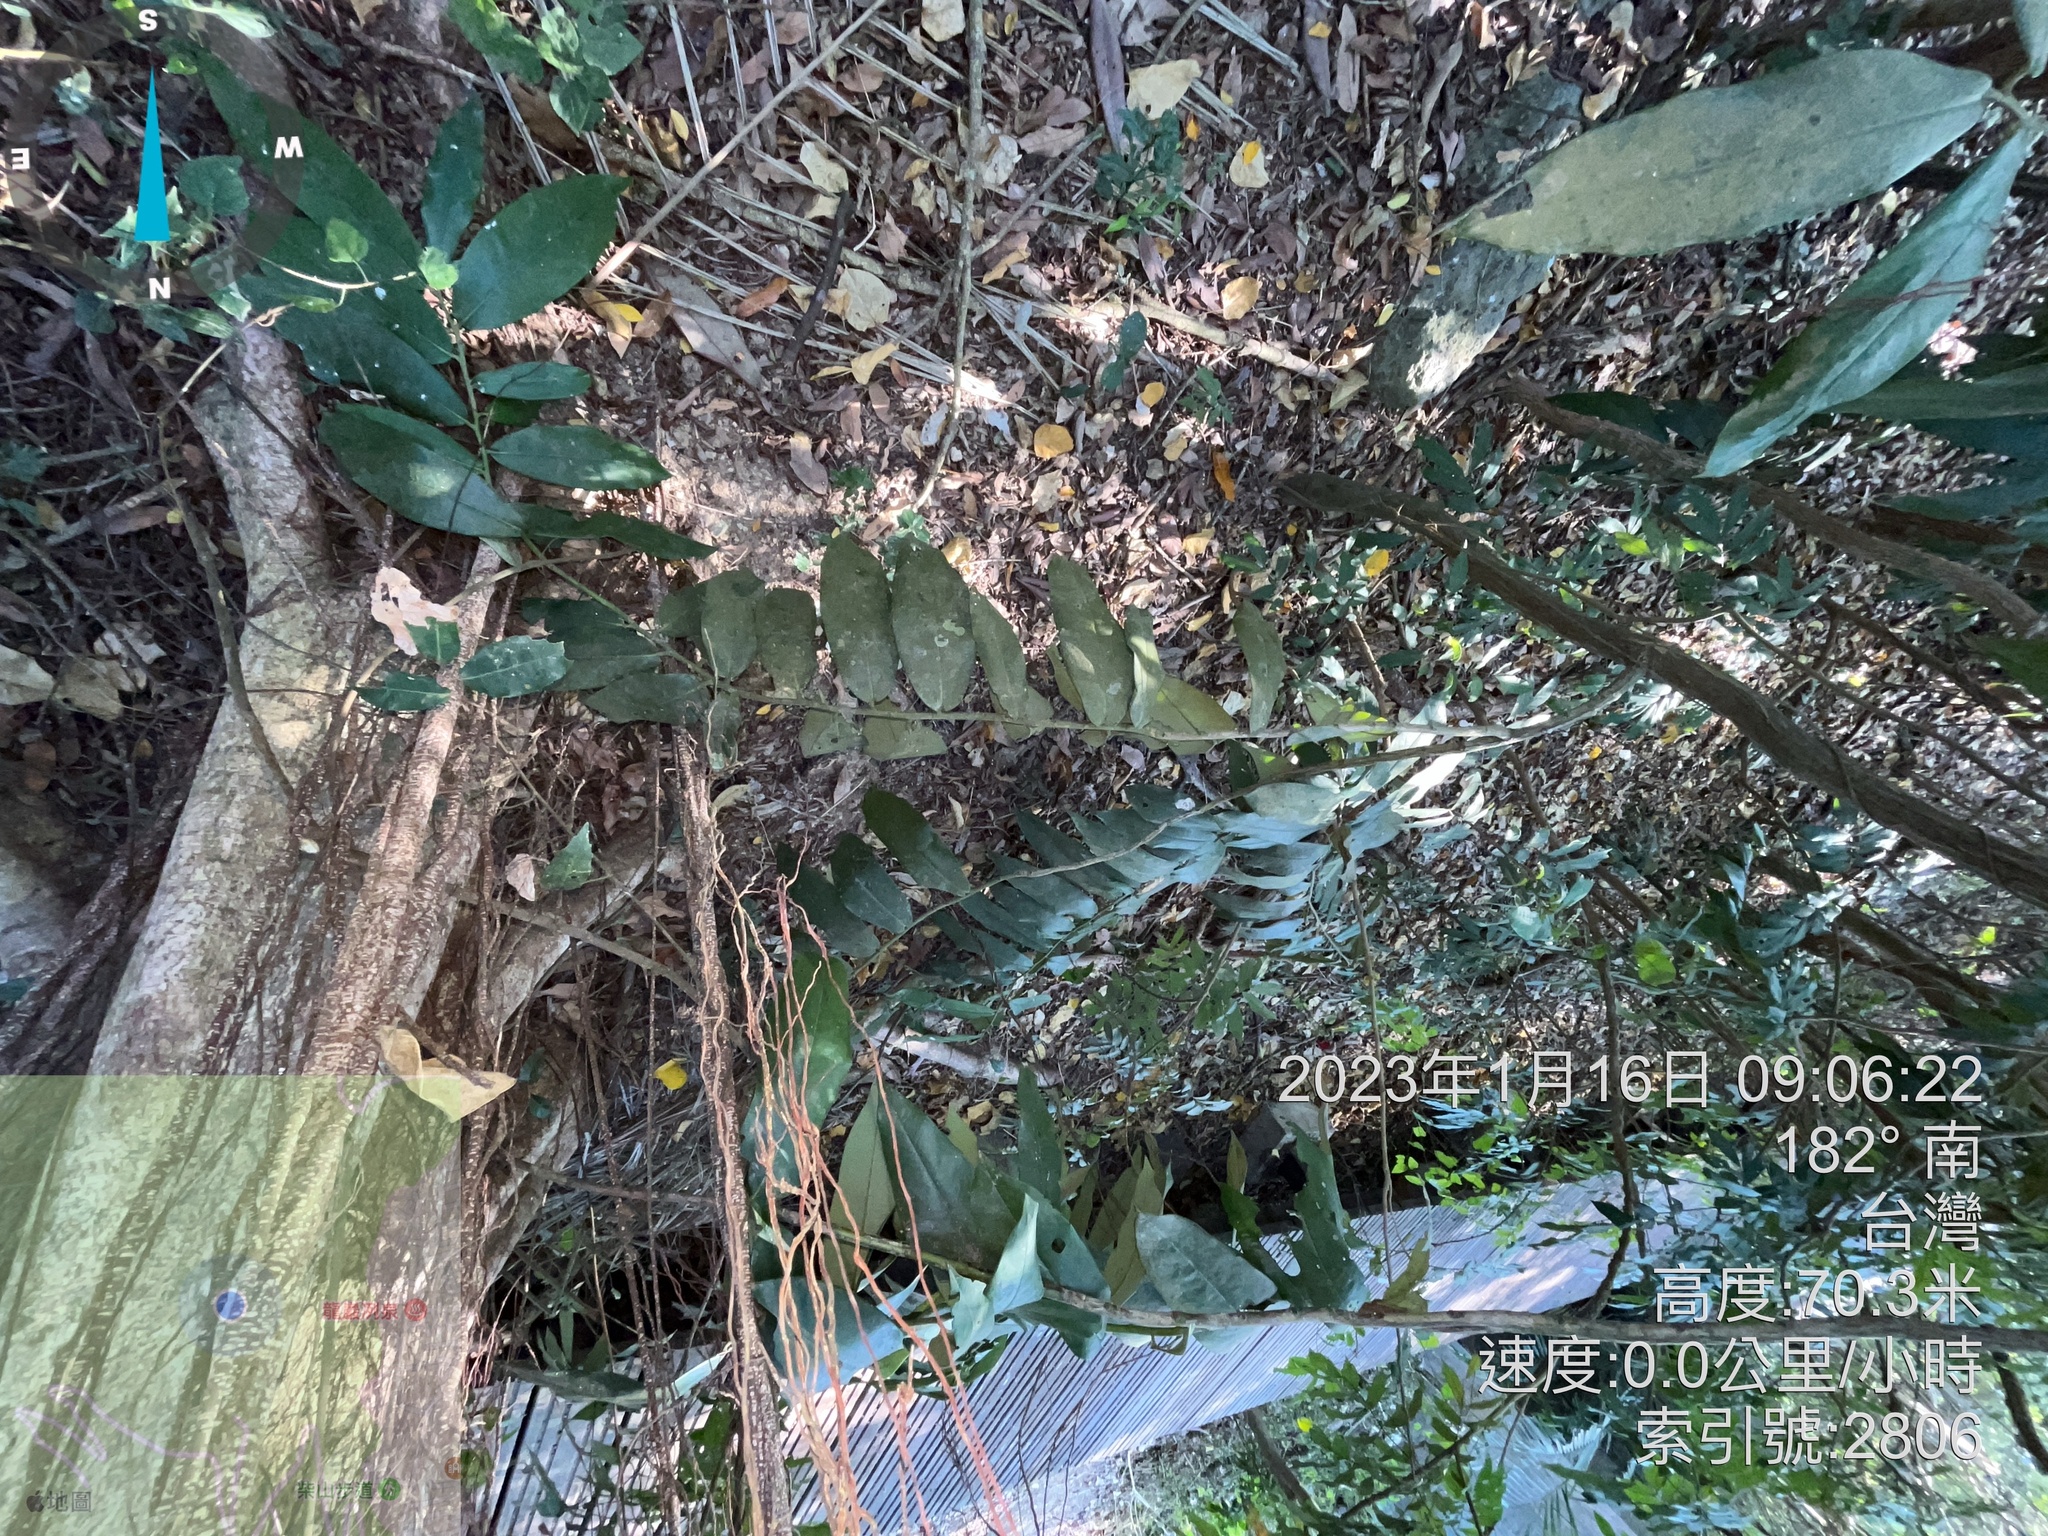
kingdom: Plantae
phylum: Tracheophyta
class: Magnoliopsida
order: Ericales
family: Ebenaceae
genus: Diospyros
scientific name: Diospyros blancoi
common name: Mabola-tree
